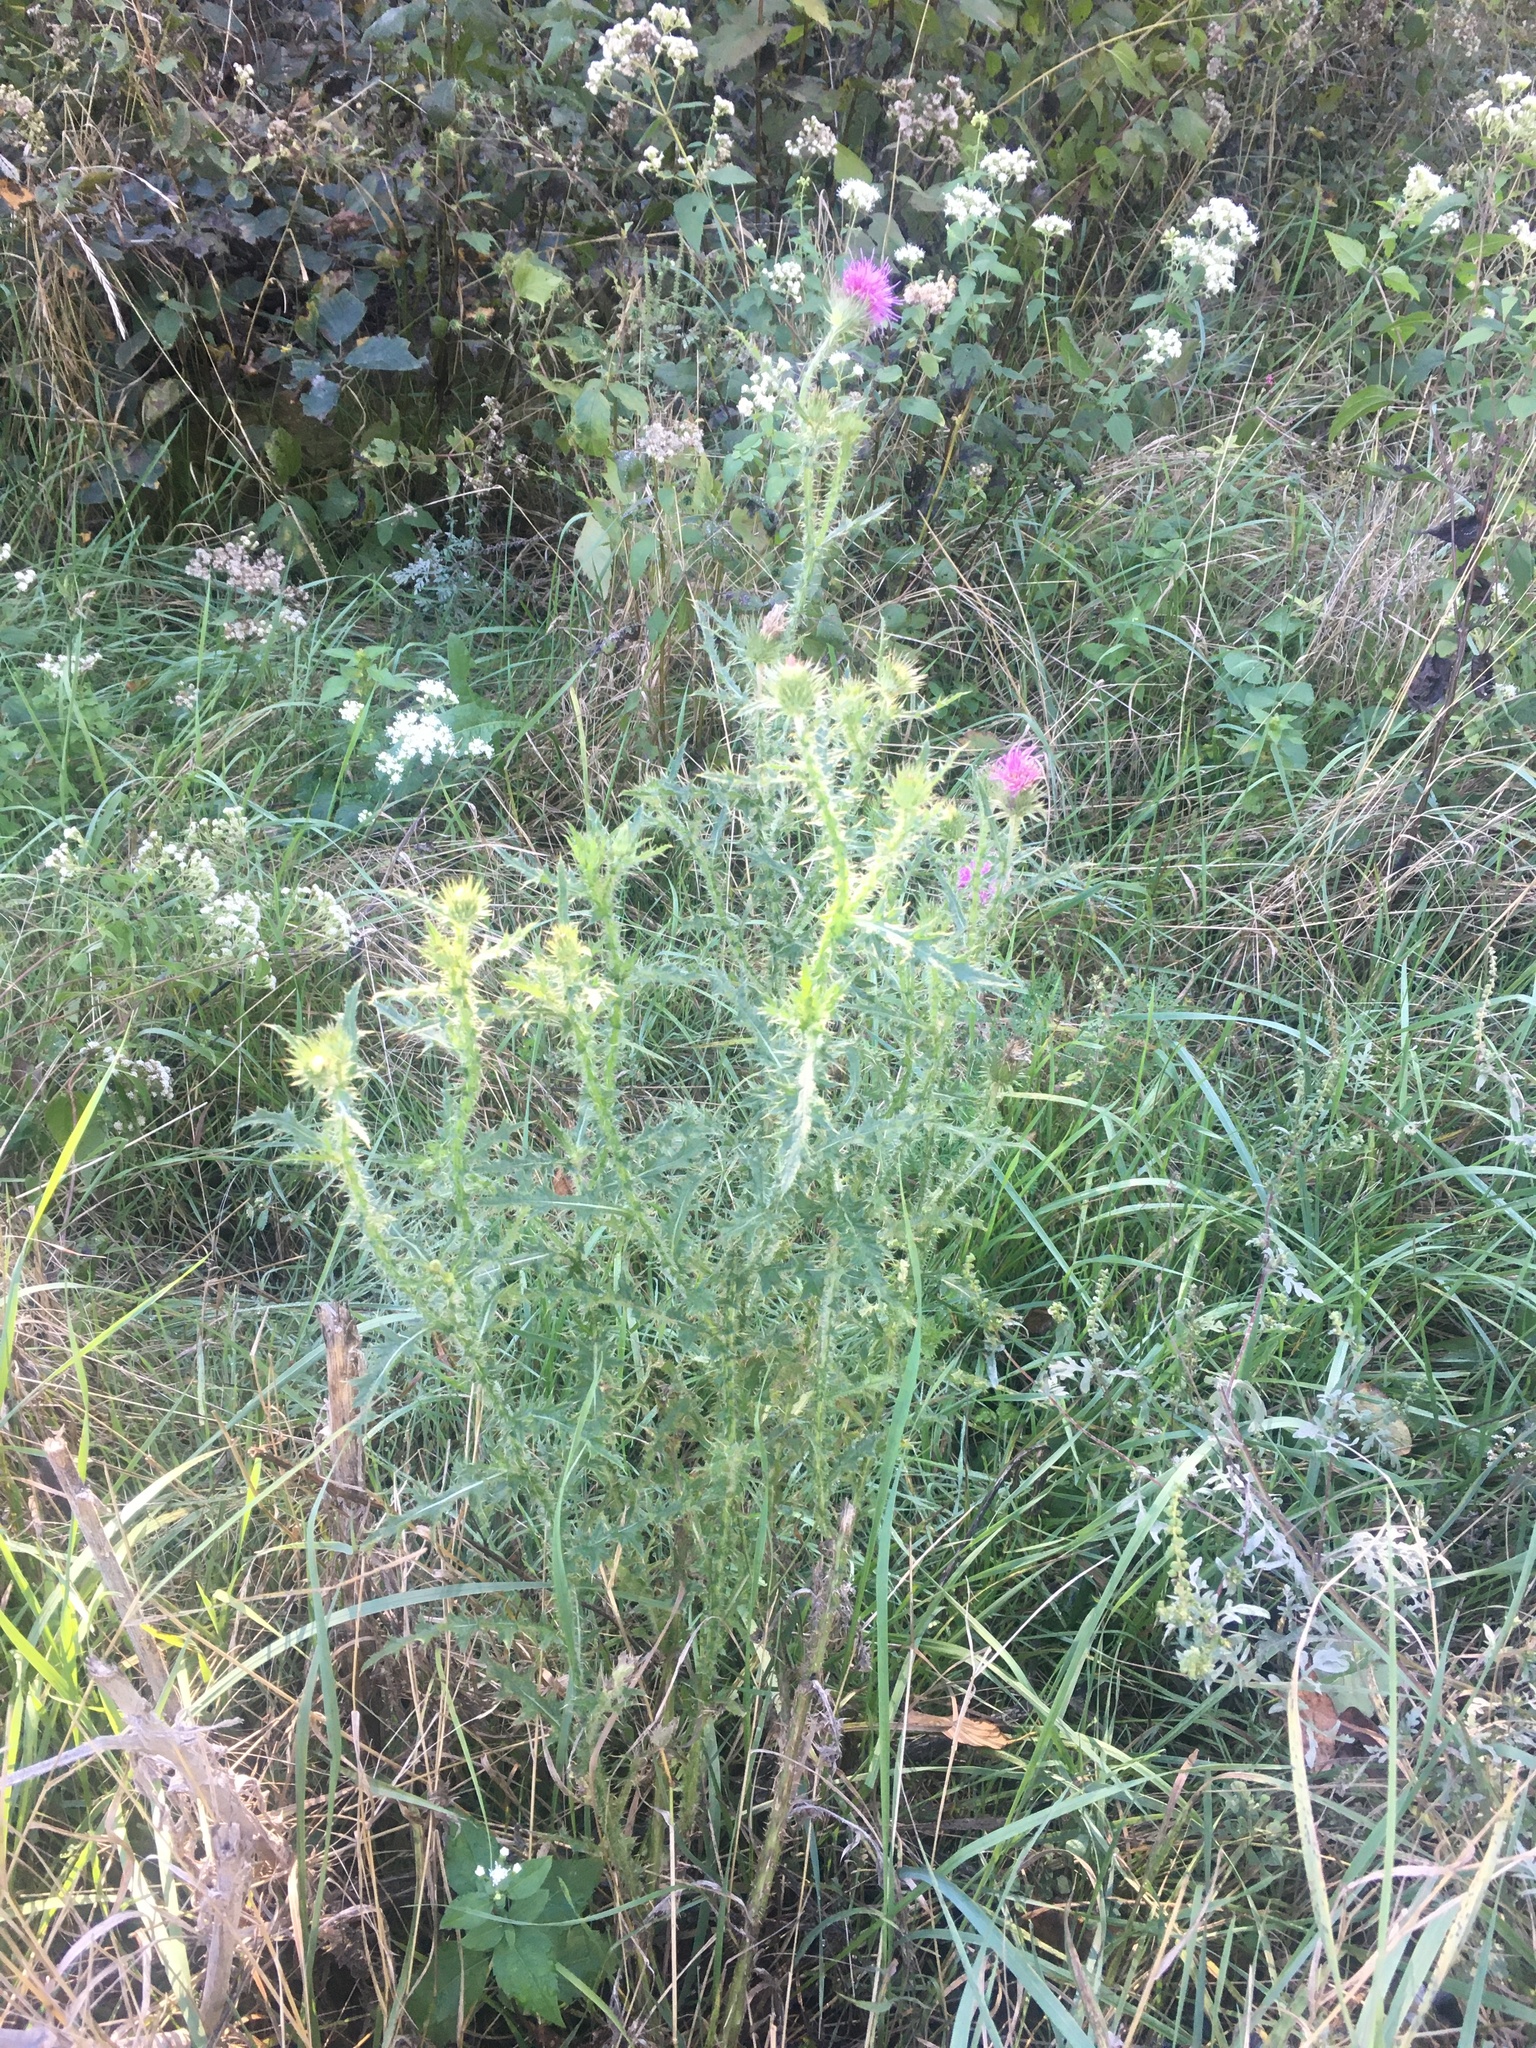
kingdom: Plantae
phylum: Tracheophyta
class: Magnoliopsida
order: Asterales
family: Asteraceae
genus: Carduus
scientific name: Carduus acanthoides
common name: Plumeless thistle
